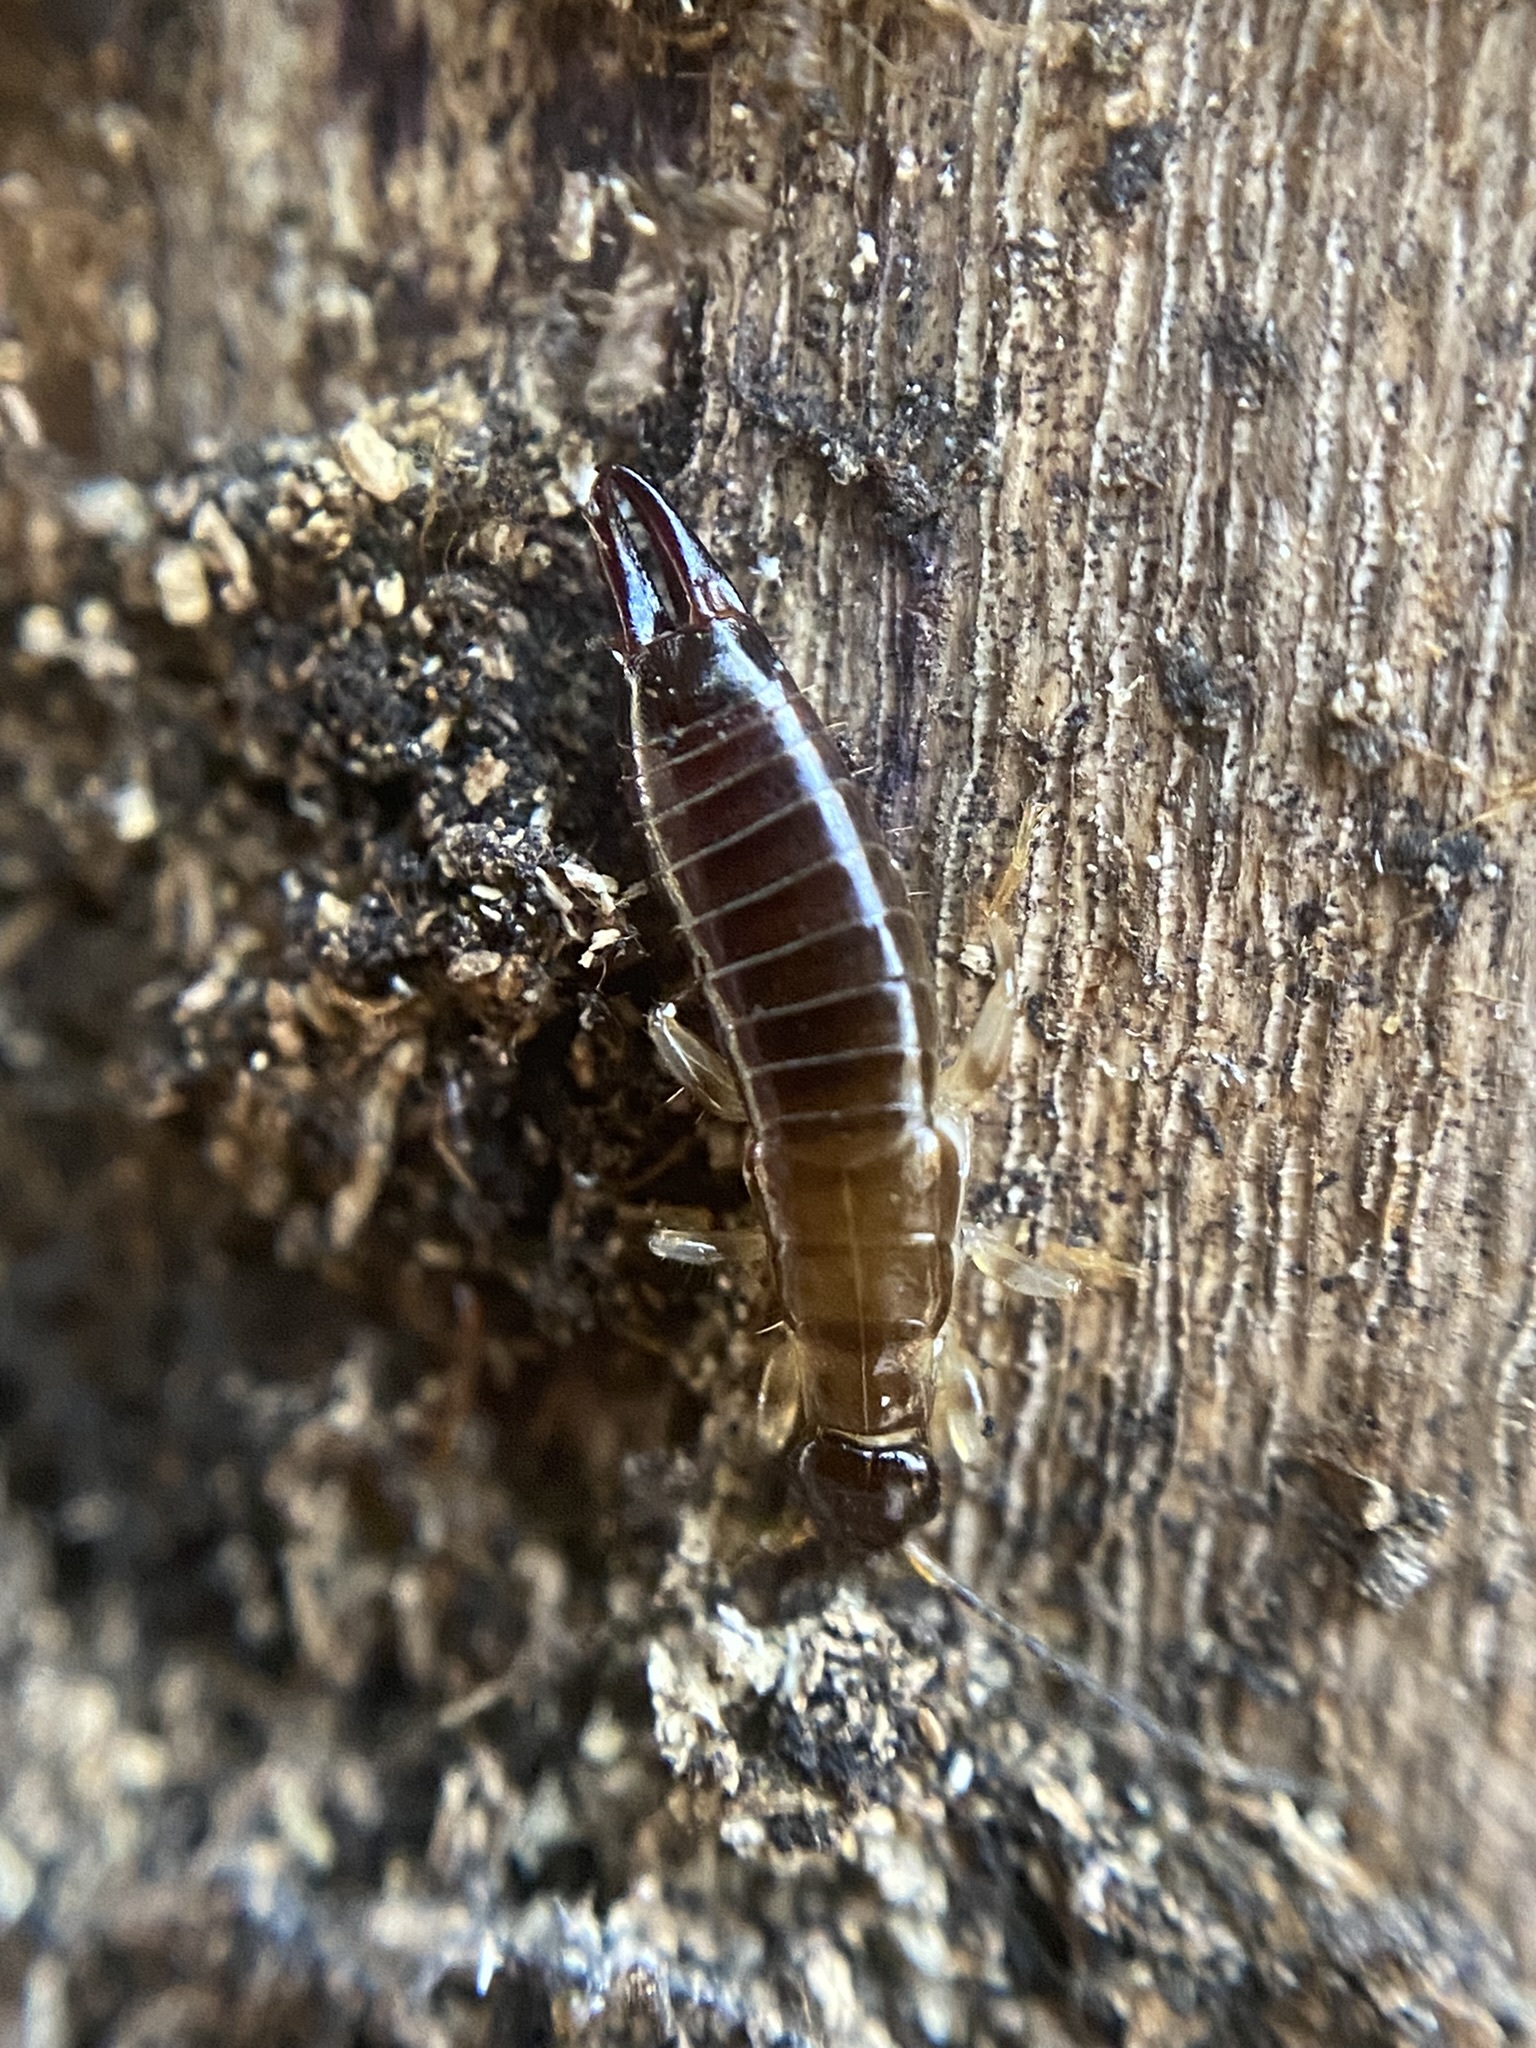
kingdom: Animalia
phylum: Arthropoda
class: Insecta
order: Dermaptera
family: Anisolabididae
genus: Euborellia
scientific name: Euborellia annulipes
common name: Ringlegged earwig
